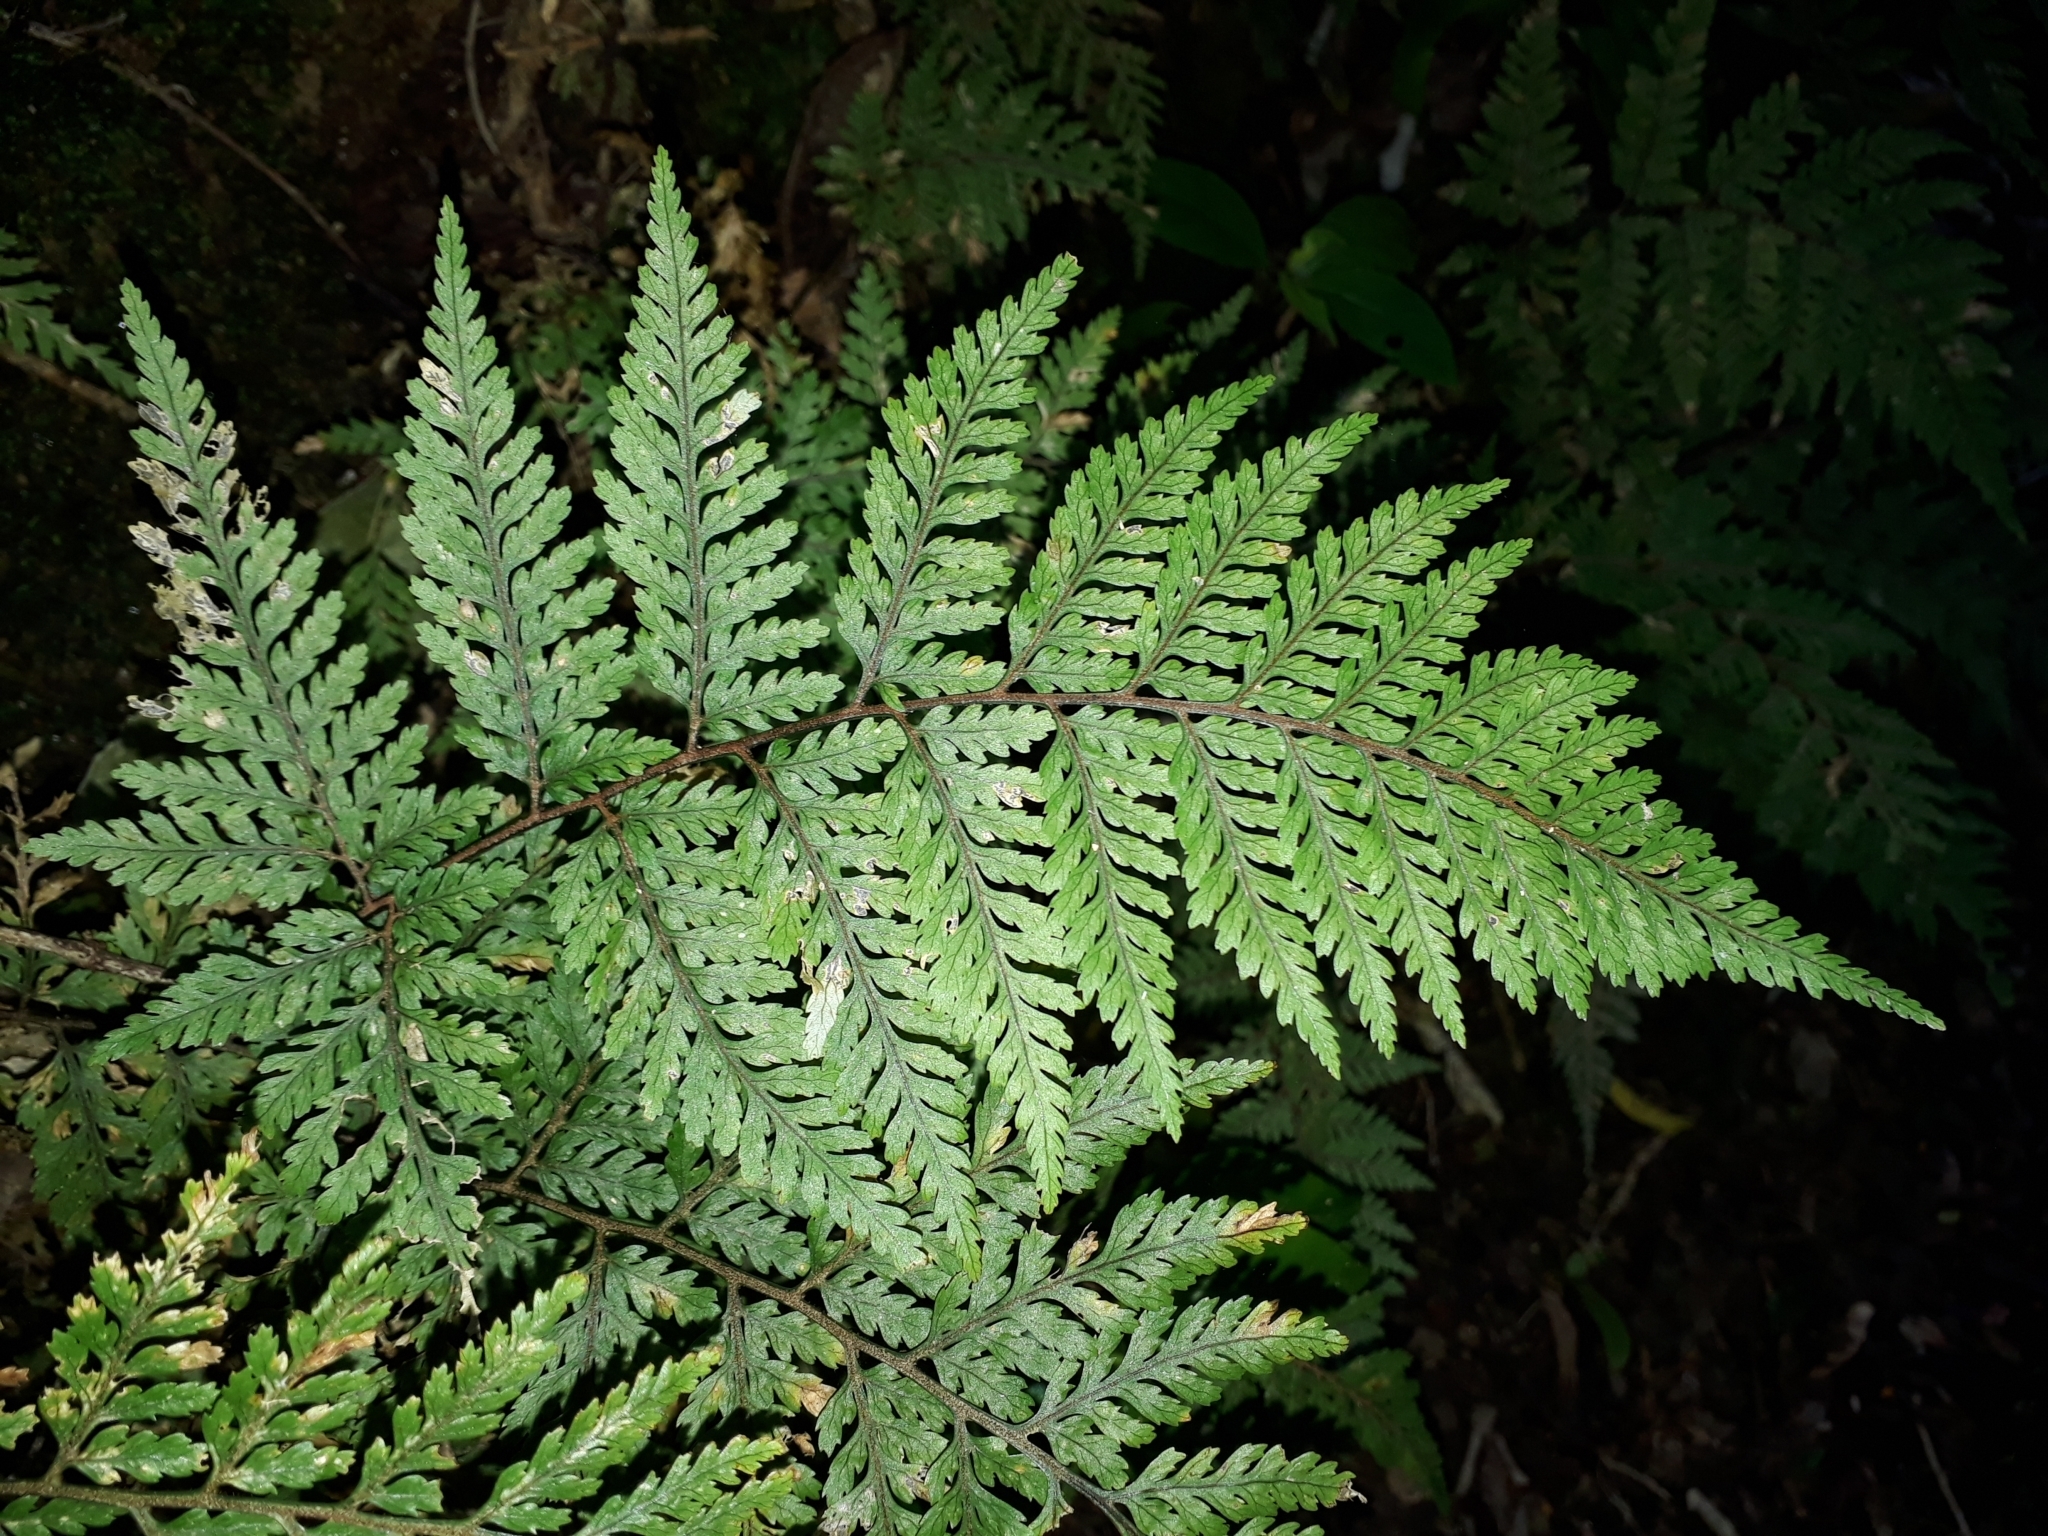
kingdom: Plantae
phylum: Tracheophyta
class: Polypodiopsida
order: Polypodiales
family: Dryopteridaceae
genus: Parapolystichum
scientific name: Parapolystichum glabellum
